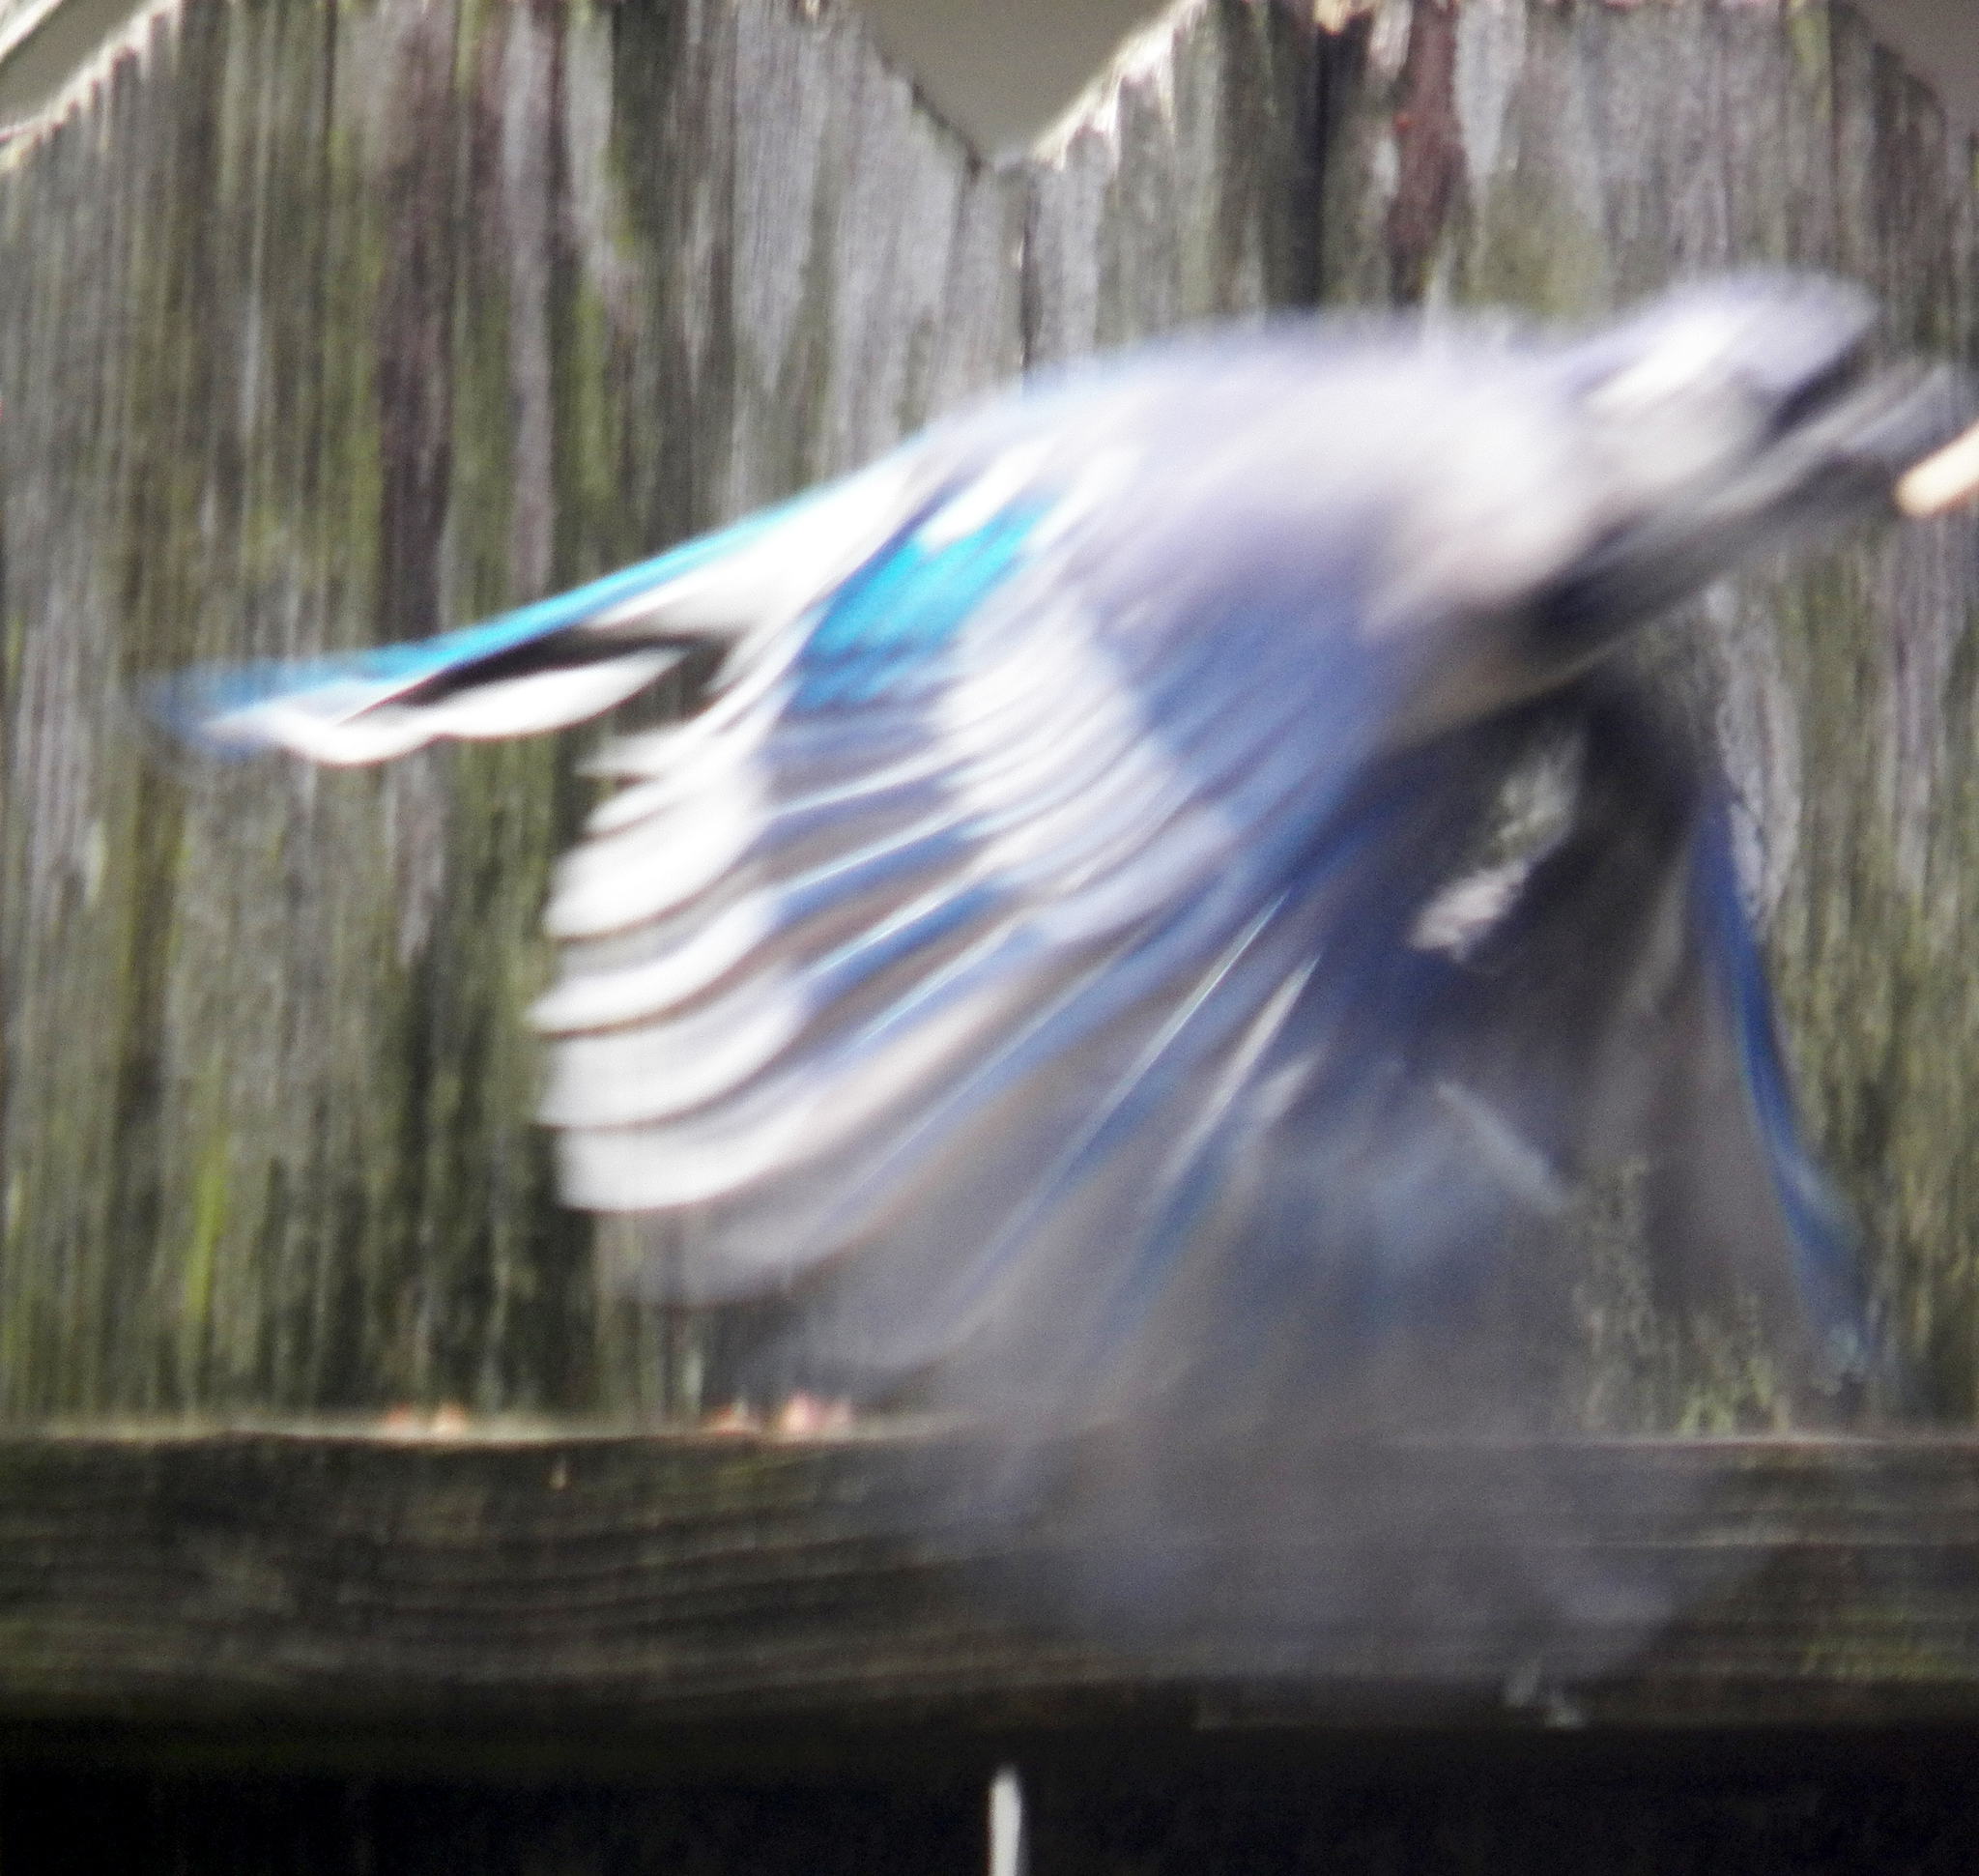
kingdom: Animalia
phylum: Chordata
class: Aves
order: Passeriformes
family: Corvidae
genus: Cyanocitta
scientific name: Cyanocitta cristata
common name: Blue jay
